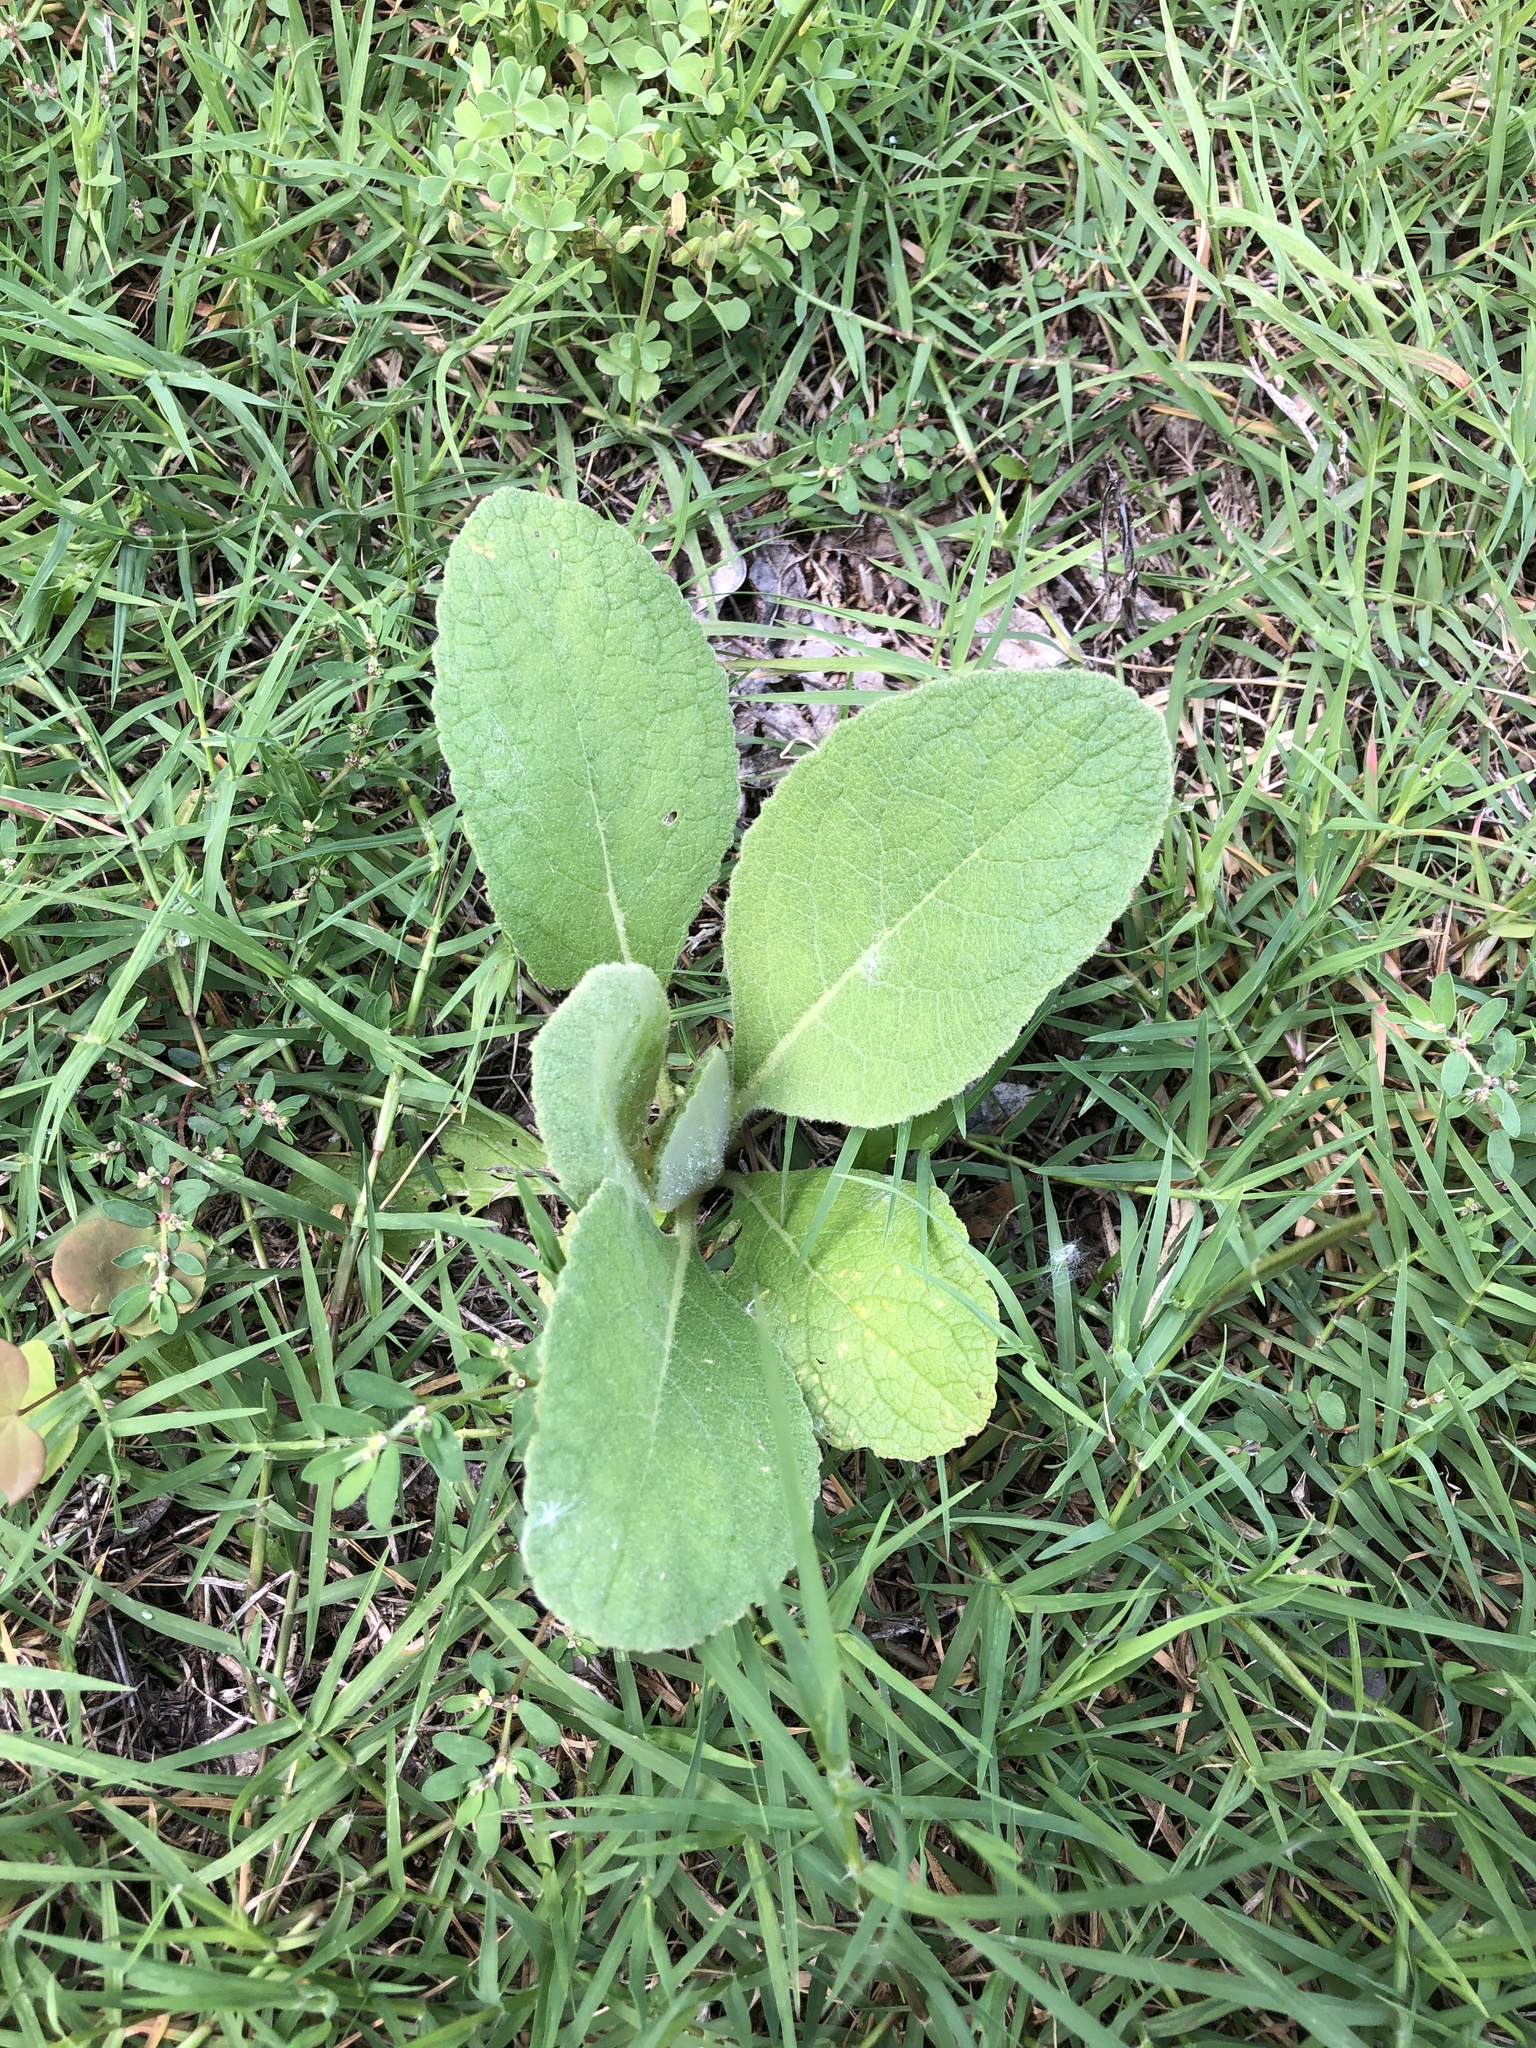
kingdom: Plantae
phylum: Tracheophyta
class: Magnoliopsida
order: Lamiales
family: Scrophulariaceae
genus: Verbascum
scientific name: Verbascum thapsus
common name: Common mullein
